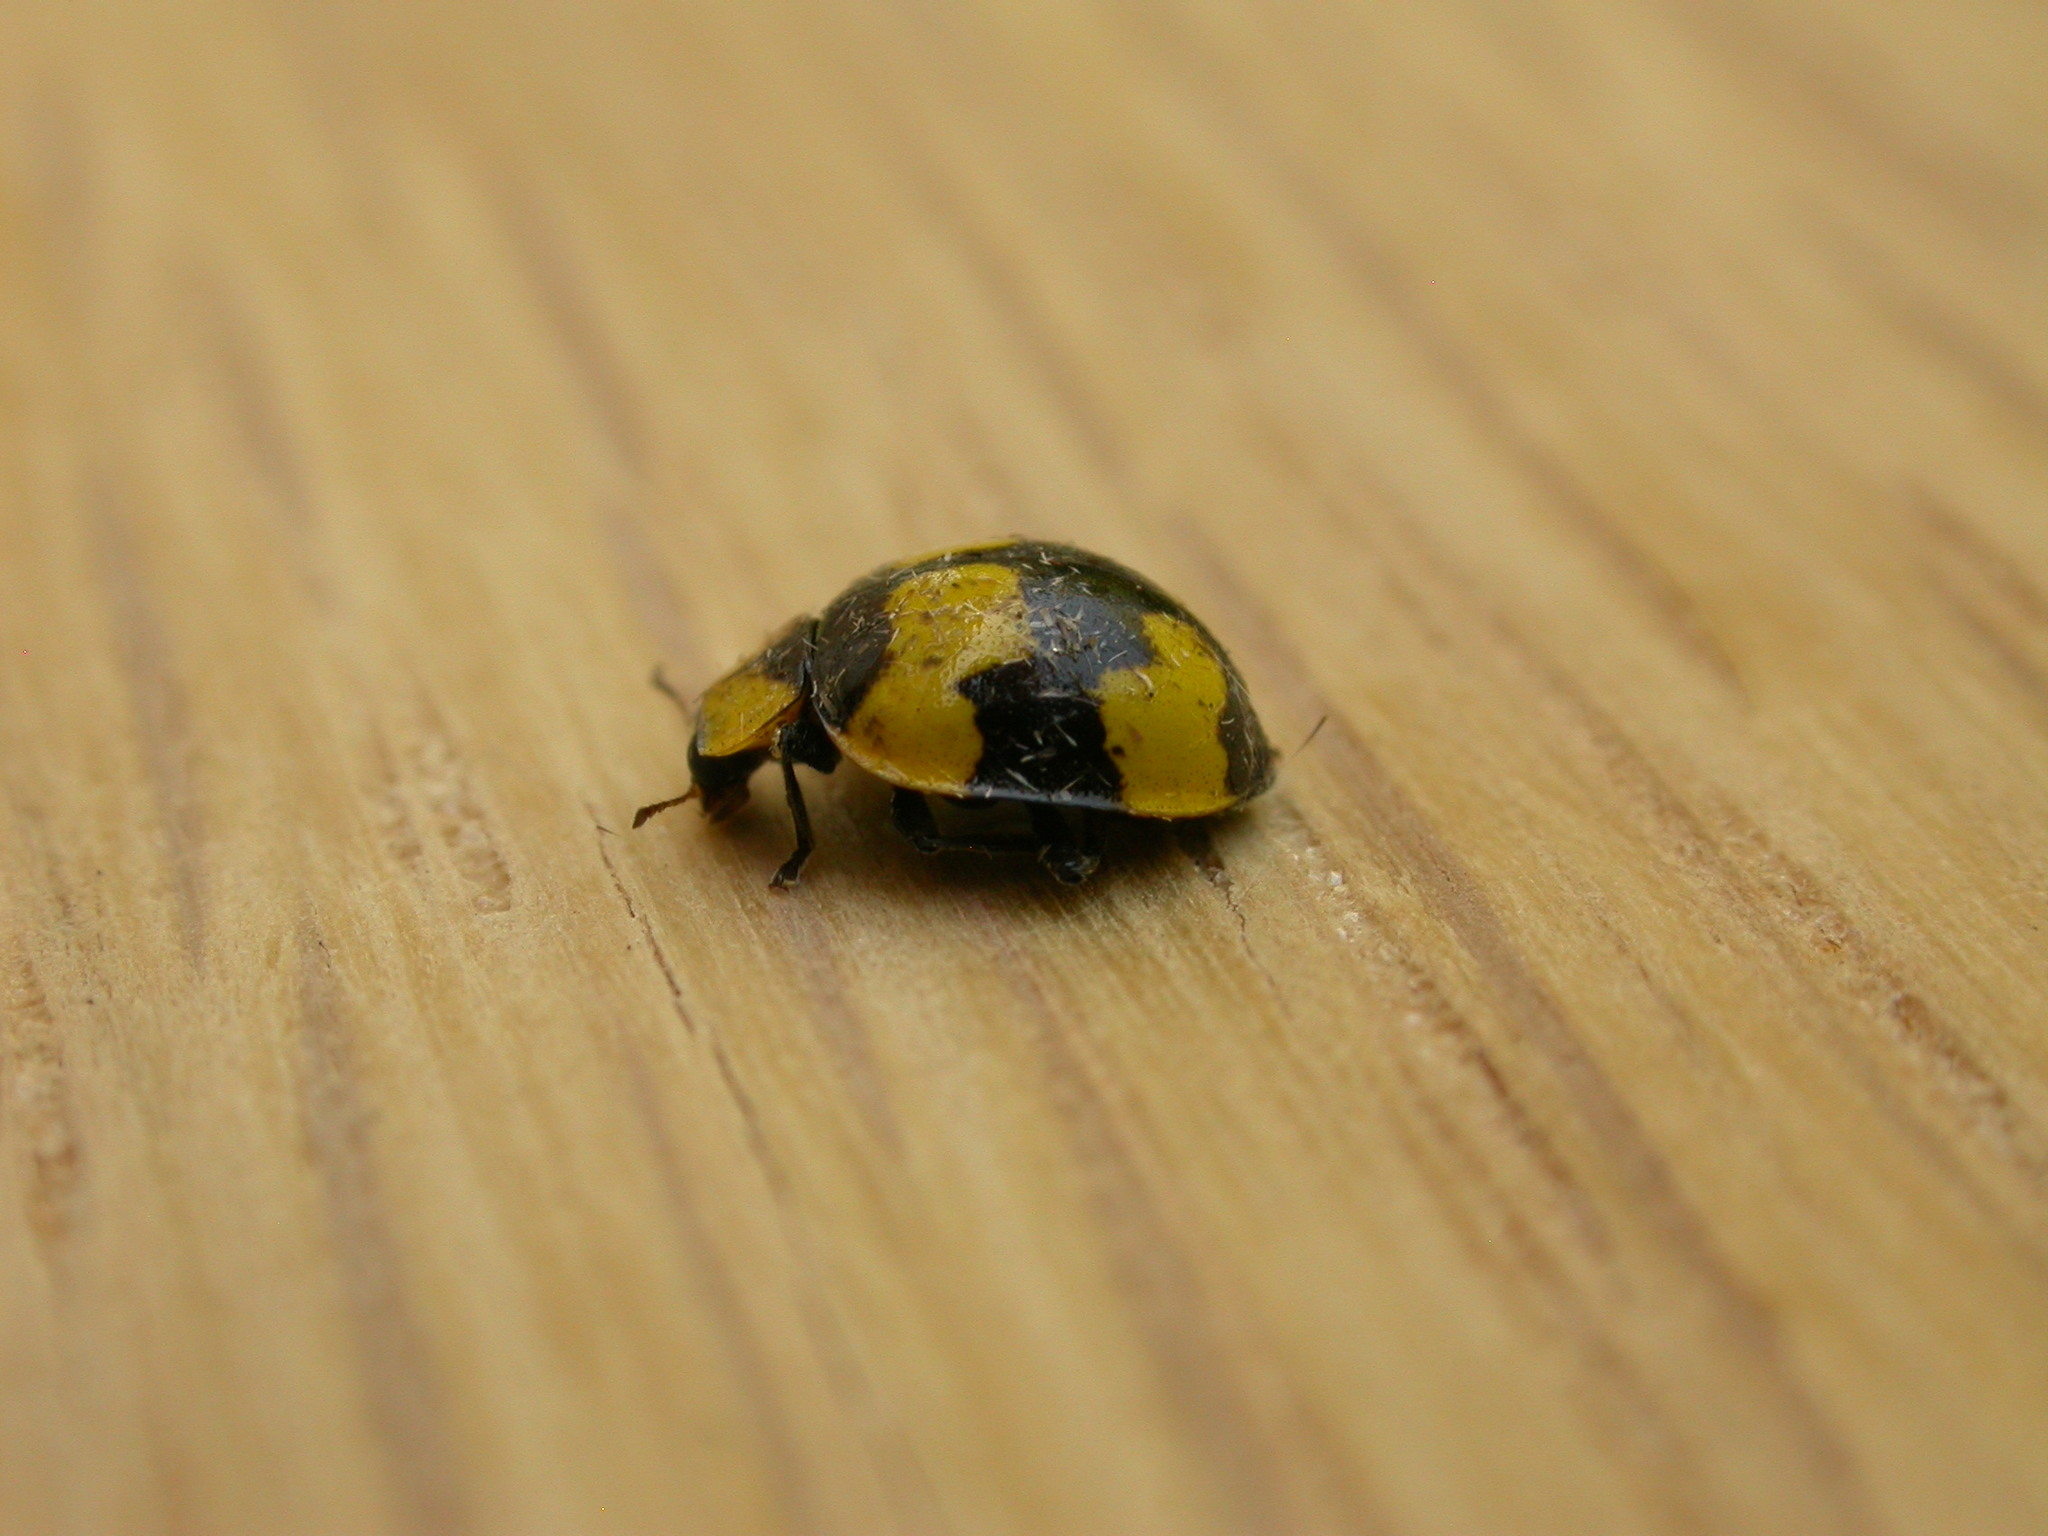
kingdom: Animalia
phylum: Arthropoda
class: Insecta
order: Coleoptera
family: Coccinellidae
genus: Illeis
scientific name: Illeis galbula
